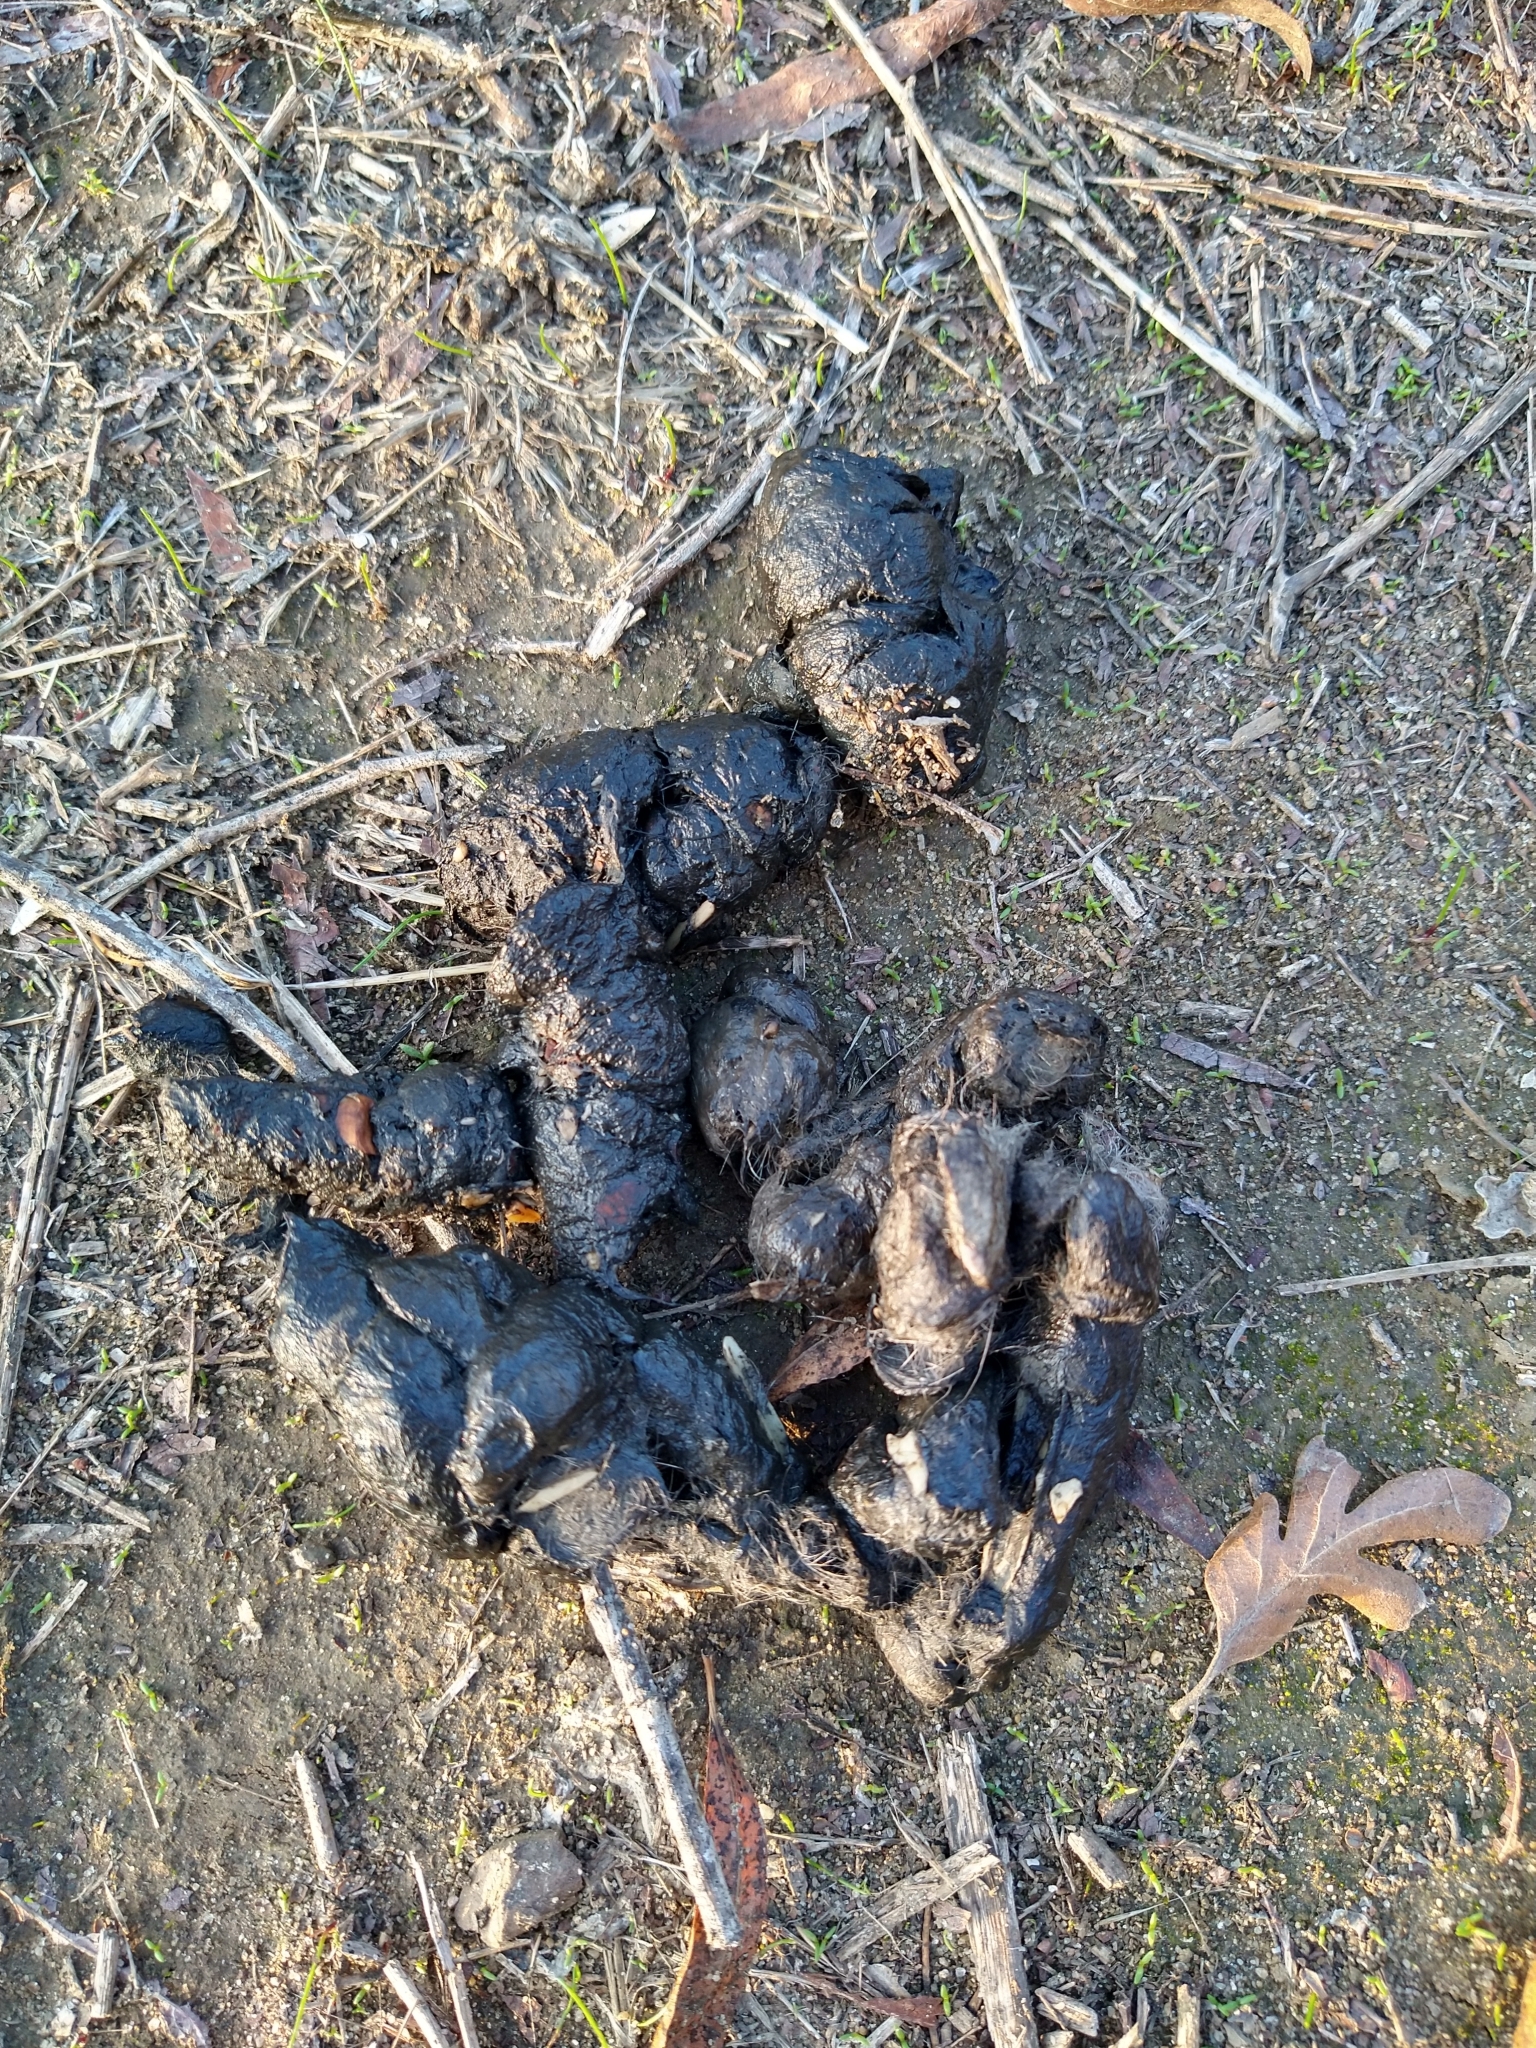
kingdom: Animalia
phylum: Chordata
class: Mammalia
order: Carnivora
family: Canidae
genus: Canis
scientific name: Canis latrans
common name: Coyote
